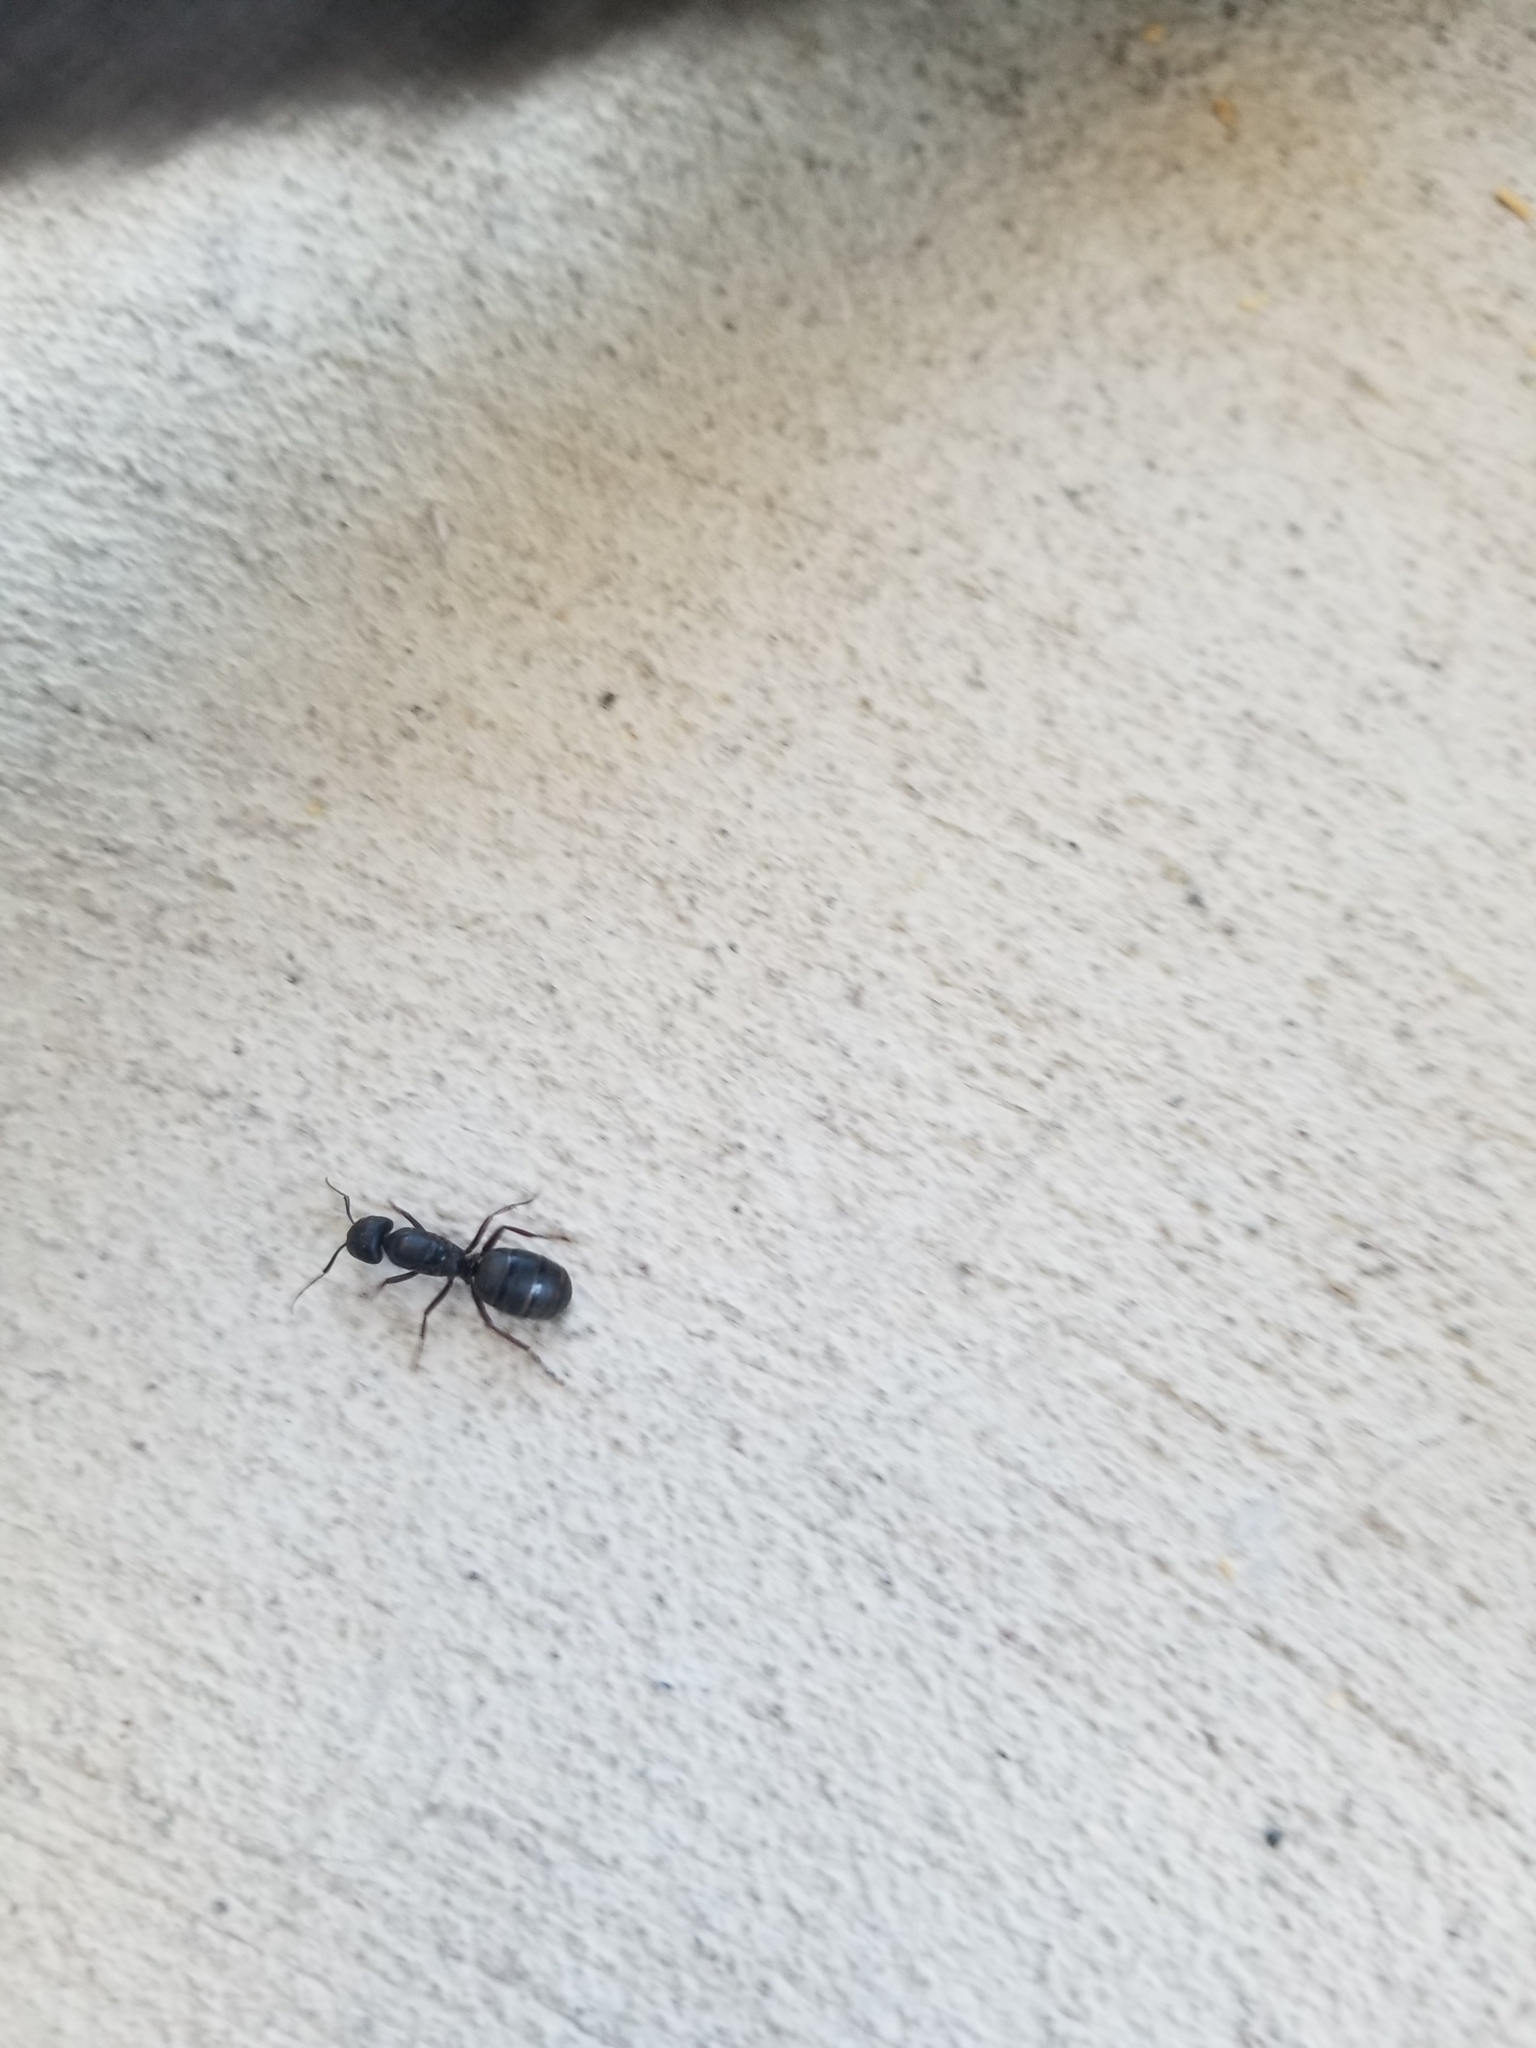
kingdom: Animalia
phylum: Arthropoda
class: Insecta
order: Hymenoptera
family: Formicidae
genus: Camponotus
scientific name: Camponotus modoc
